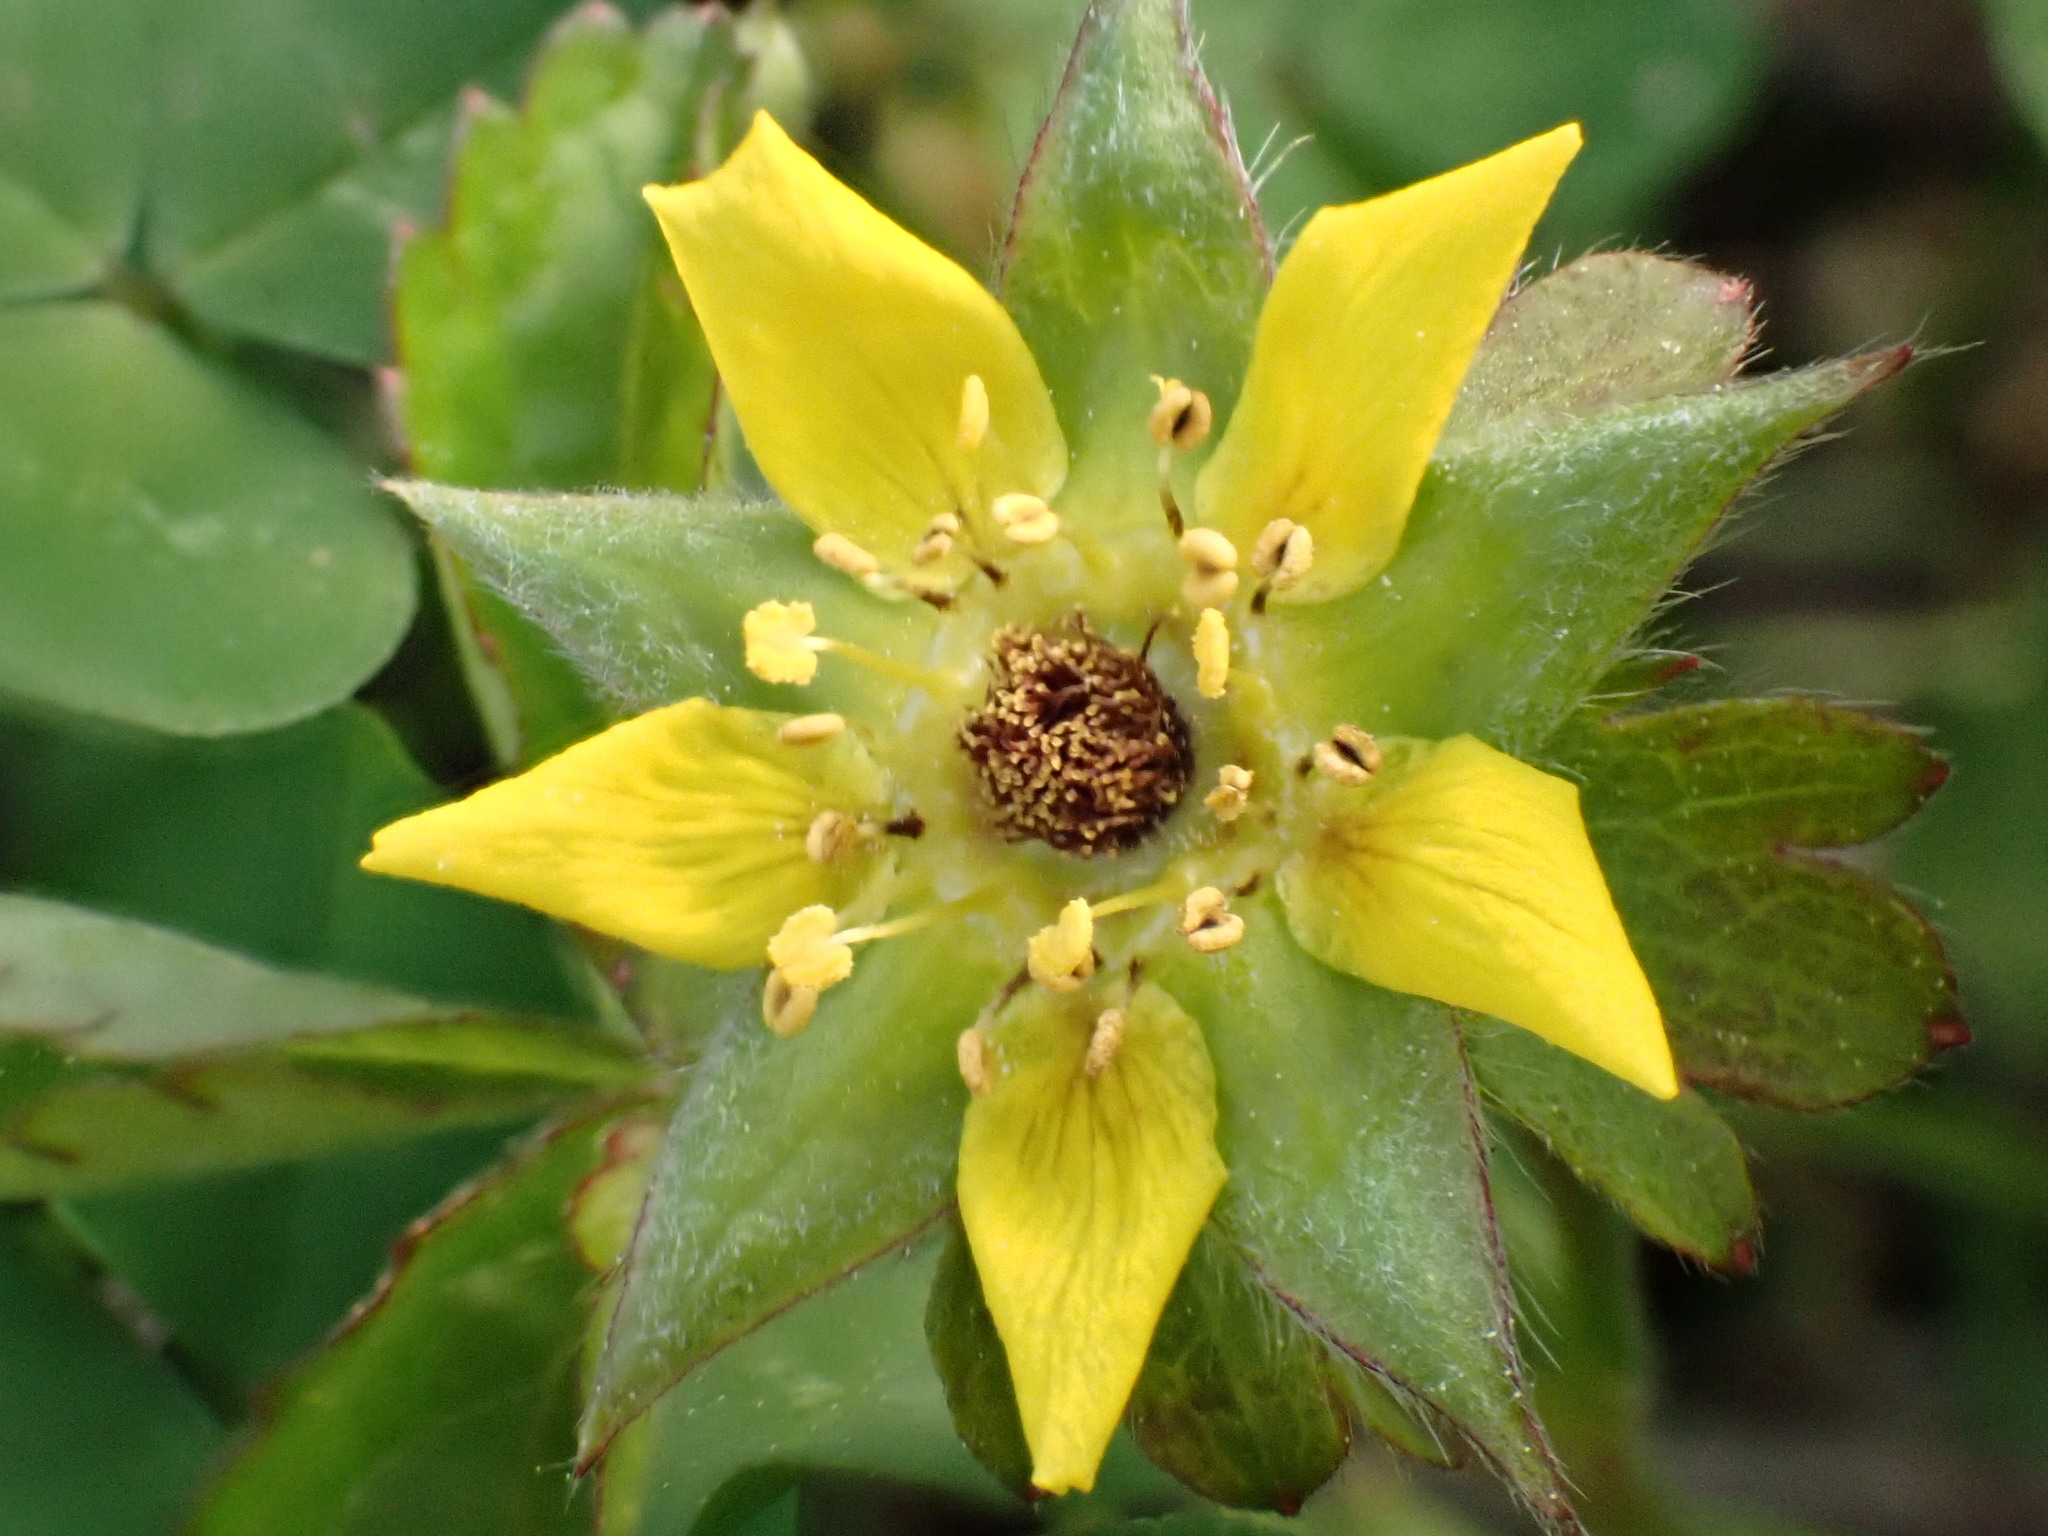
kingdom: Plantae
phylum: Tracheophyta
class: Magnoliopsida
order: Rosales
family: Rosaceae
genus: Potentilla
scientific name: Potentilla indica
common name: Yellow-flowered strawberry
